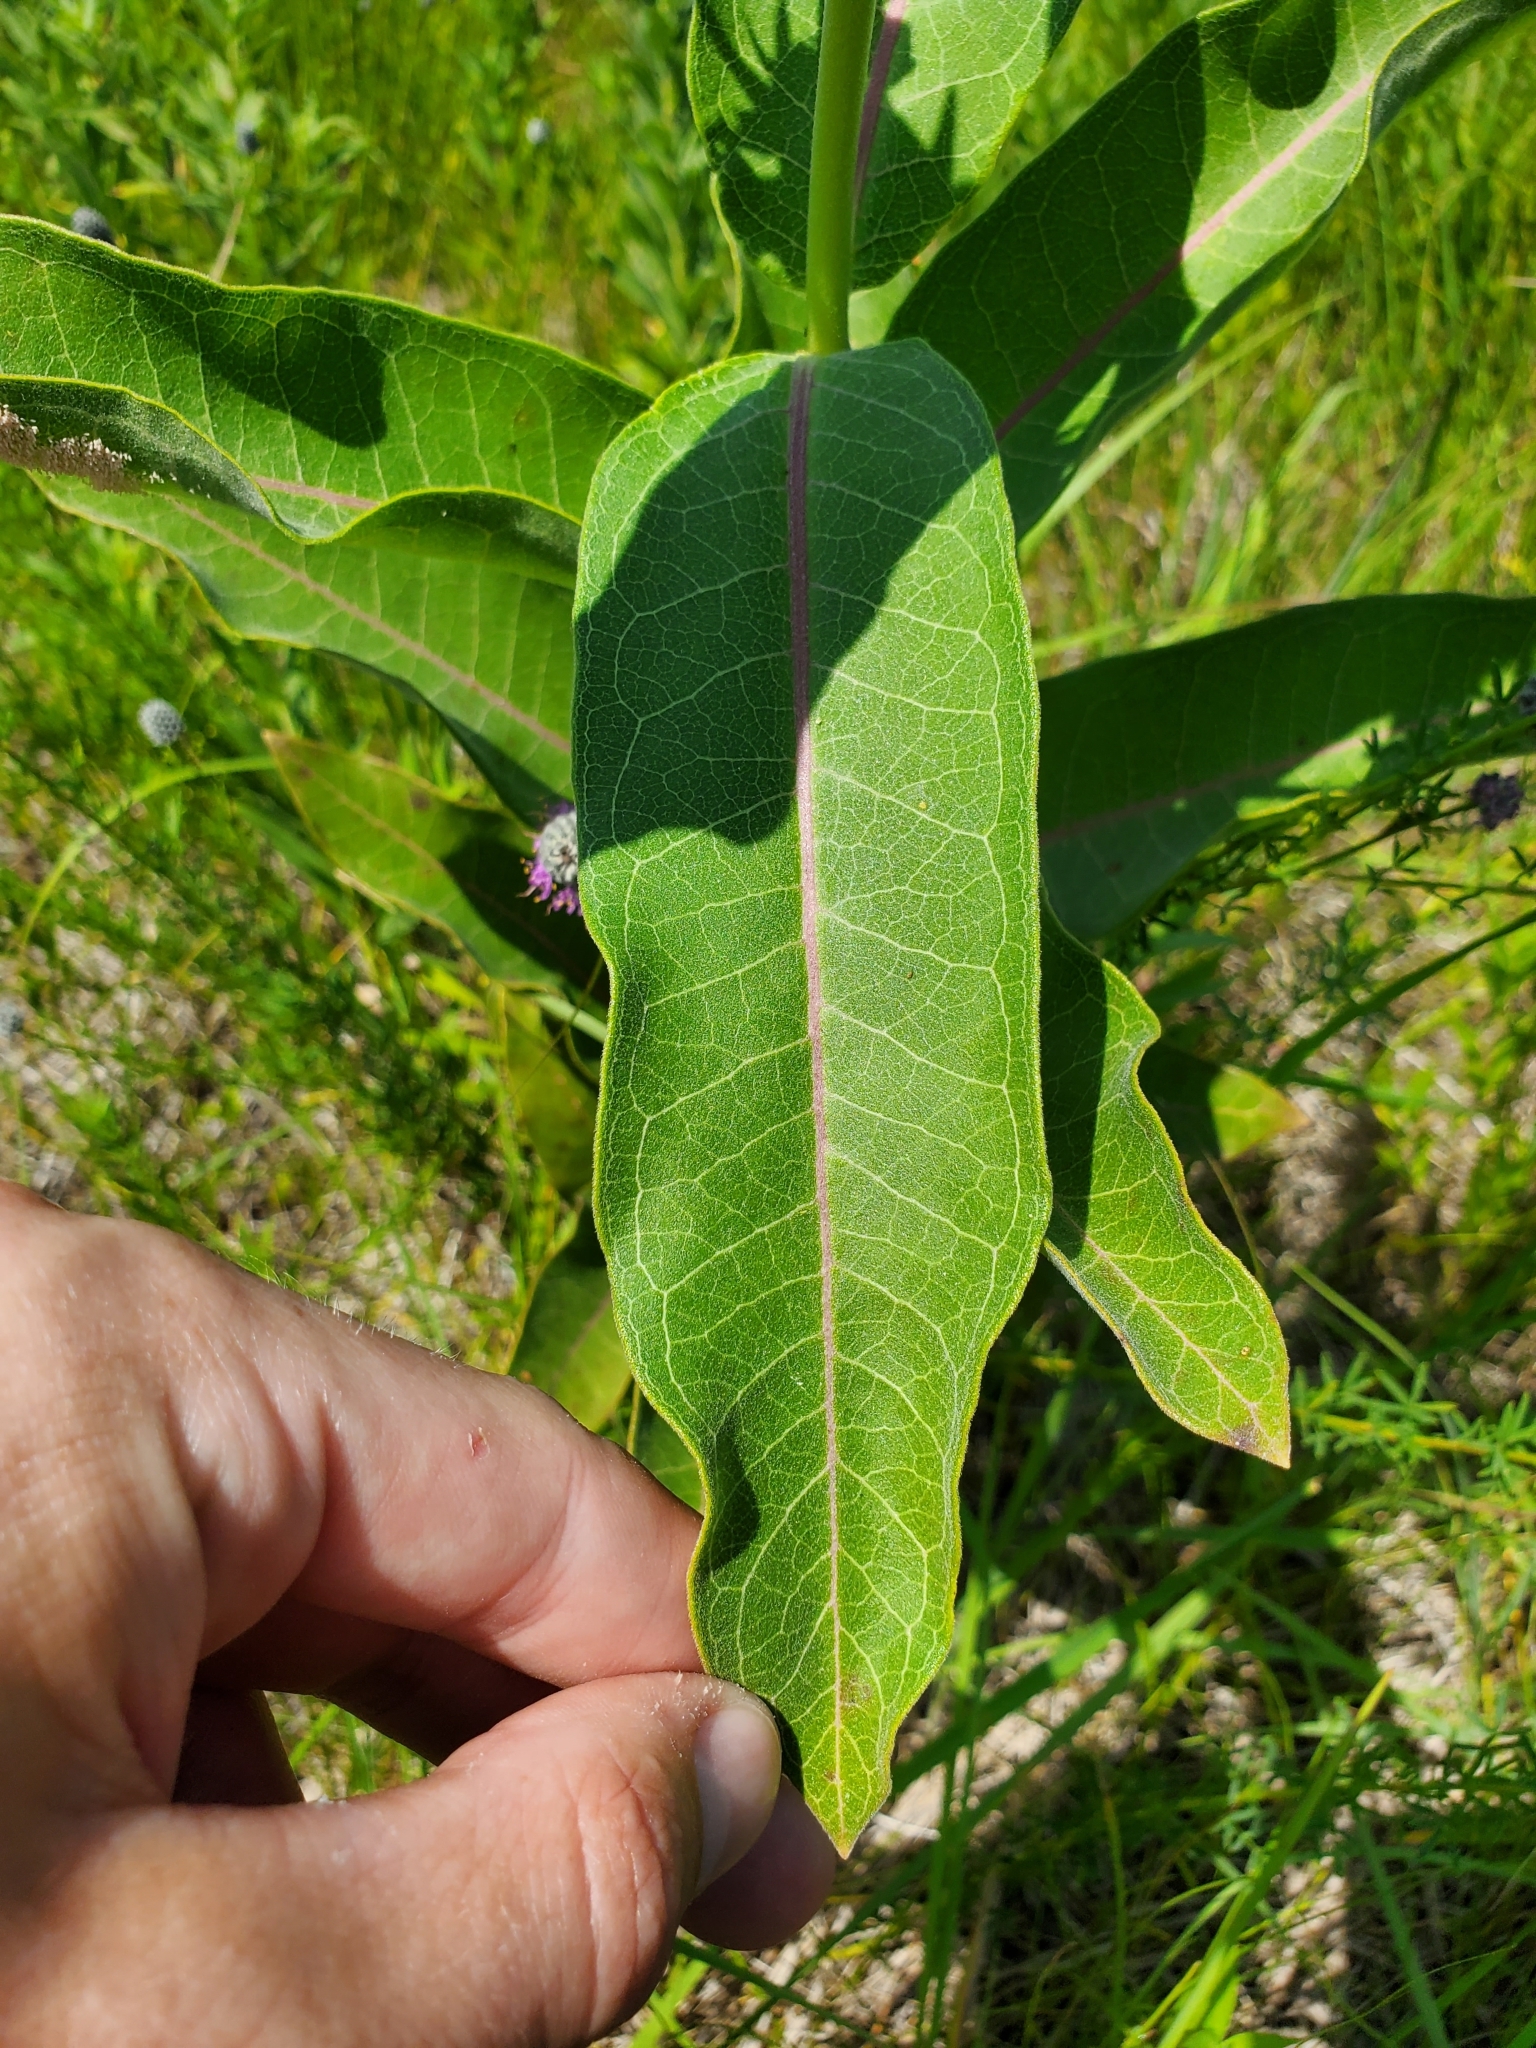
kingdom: Plantae
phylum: Tracheophyta
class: Magnoliopsida
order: Gentianales
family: Apocynaceae
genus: Asclepias
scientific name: Asclepias speciosa
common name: Showy milkweed
